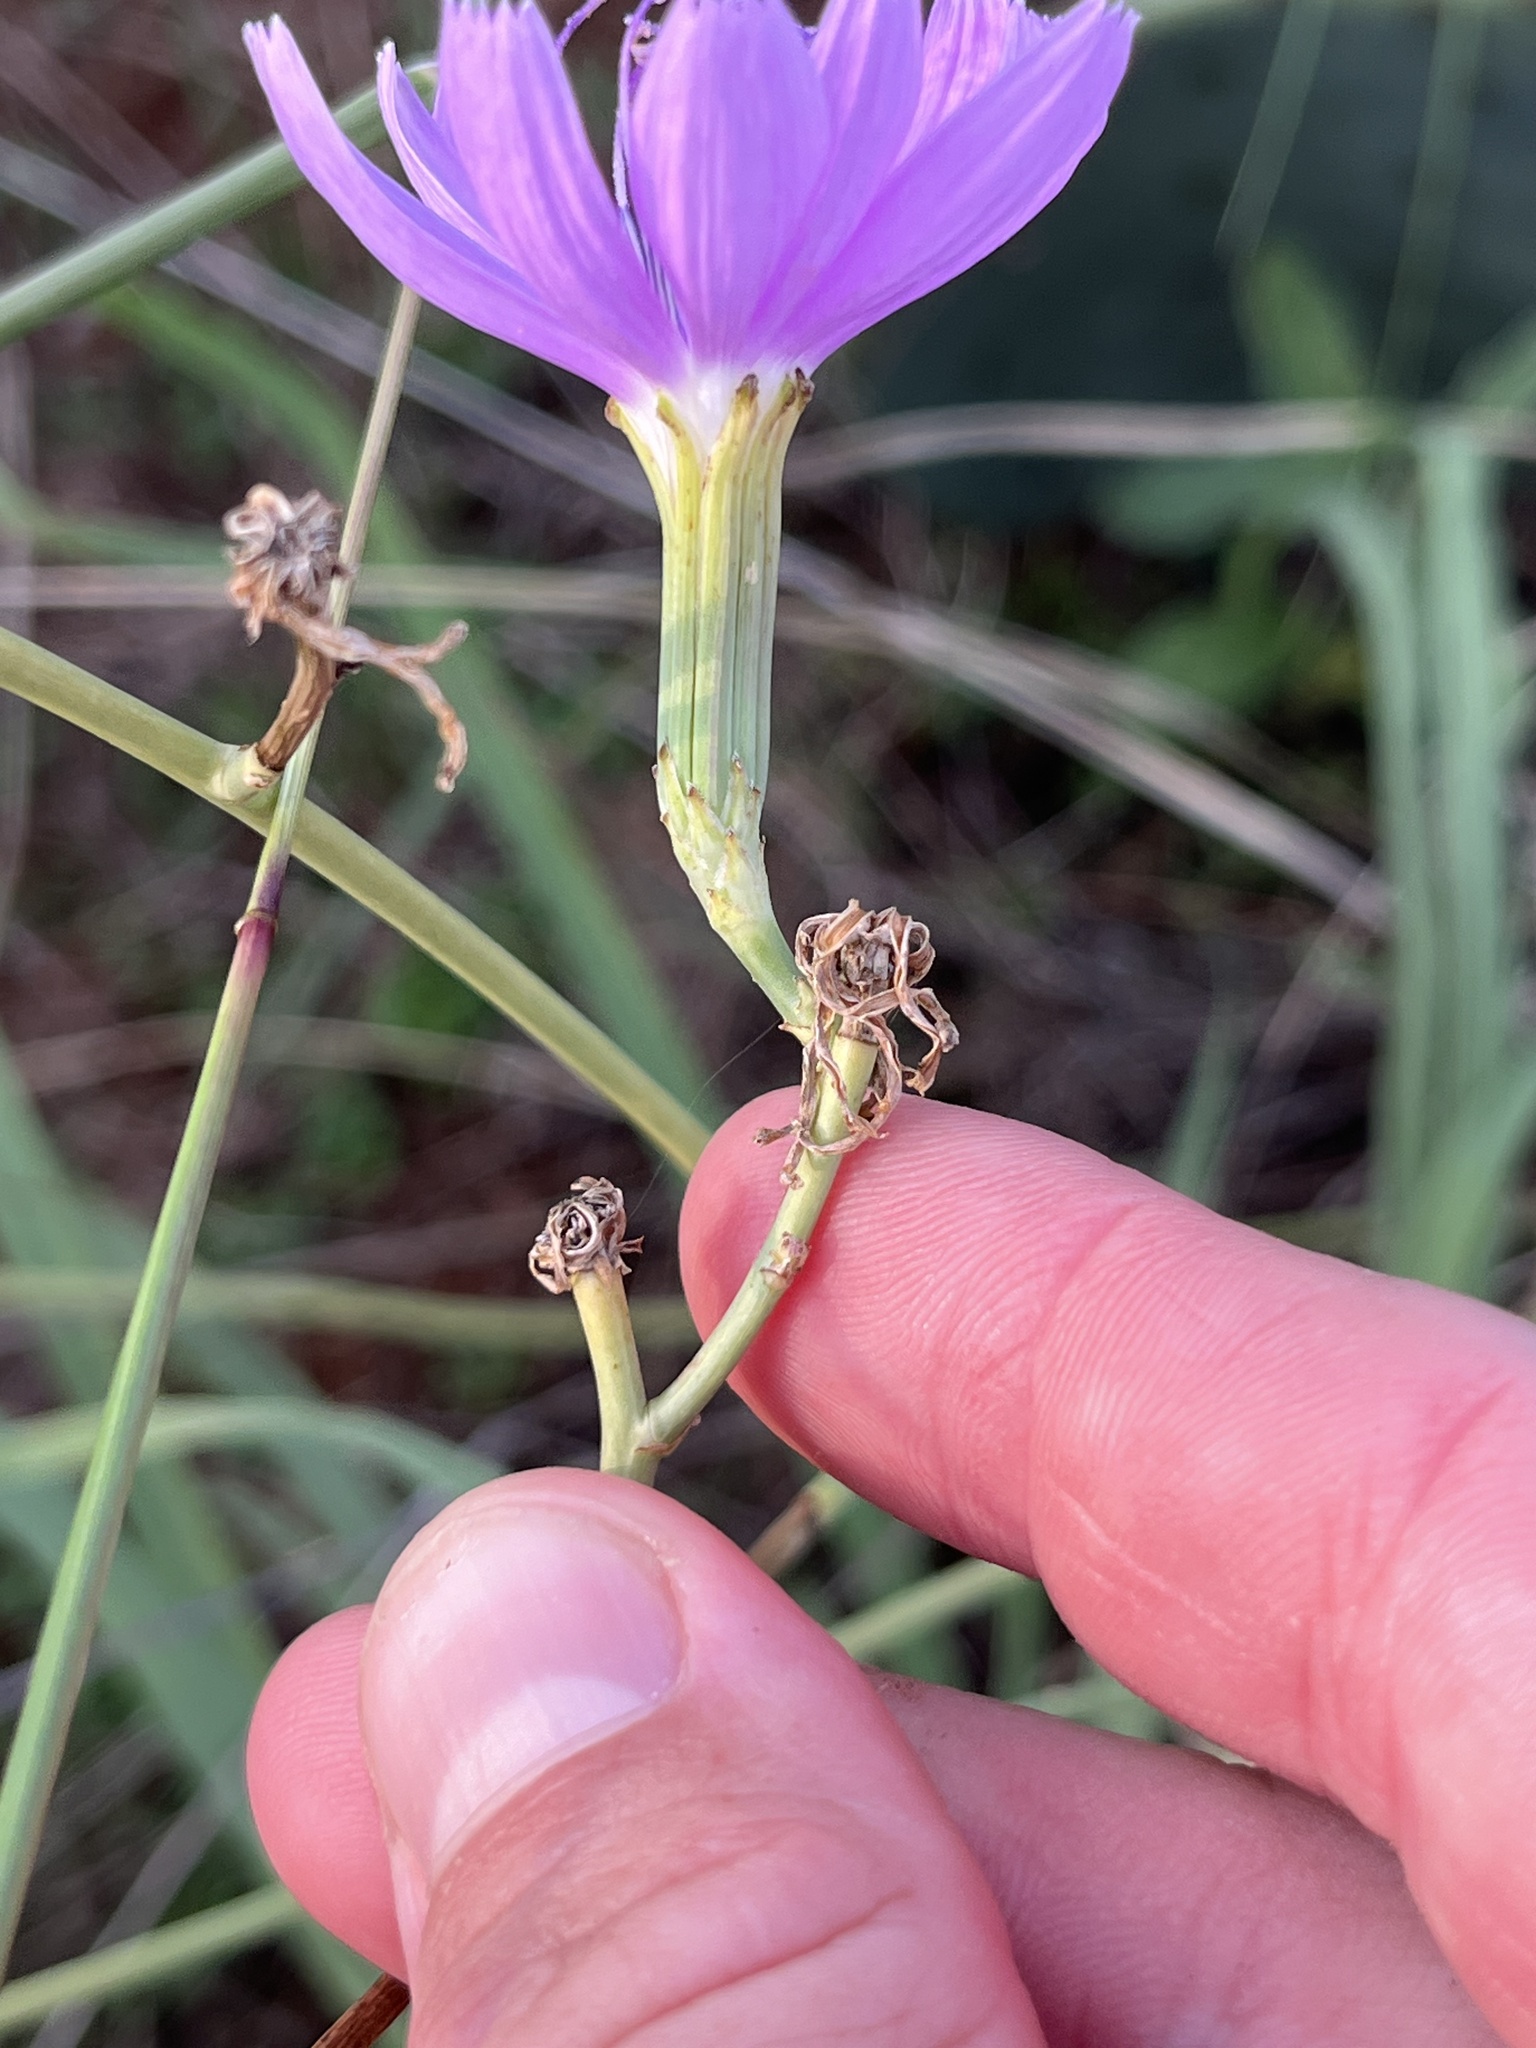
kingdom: Plantae
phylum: Tracheophyta
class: Magnoliopsida
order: Asterales
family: Asteraceae
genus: Lygodesmia
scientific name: Lygodesmia texana
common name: Texas skeleton-plant
